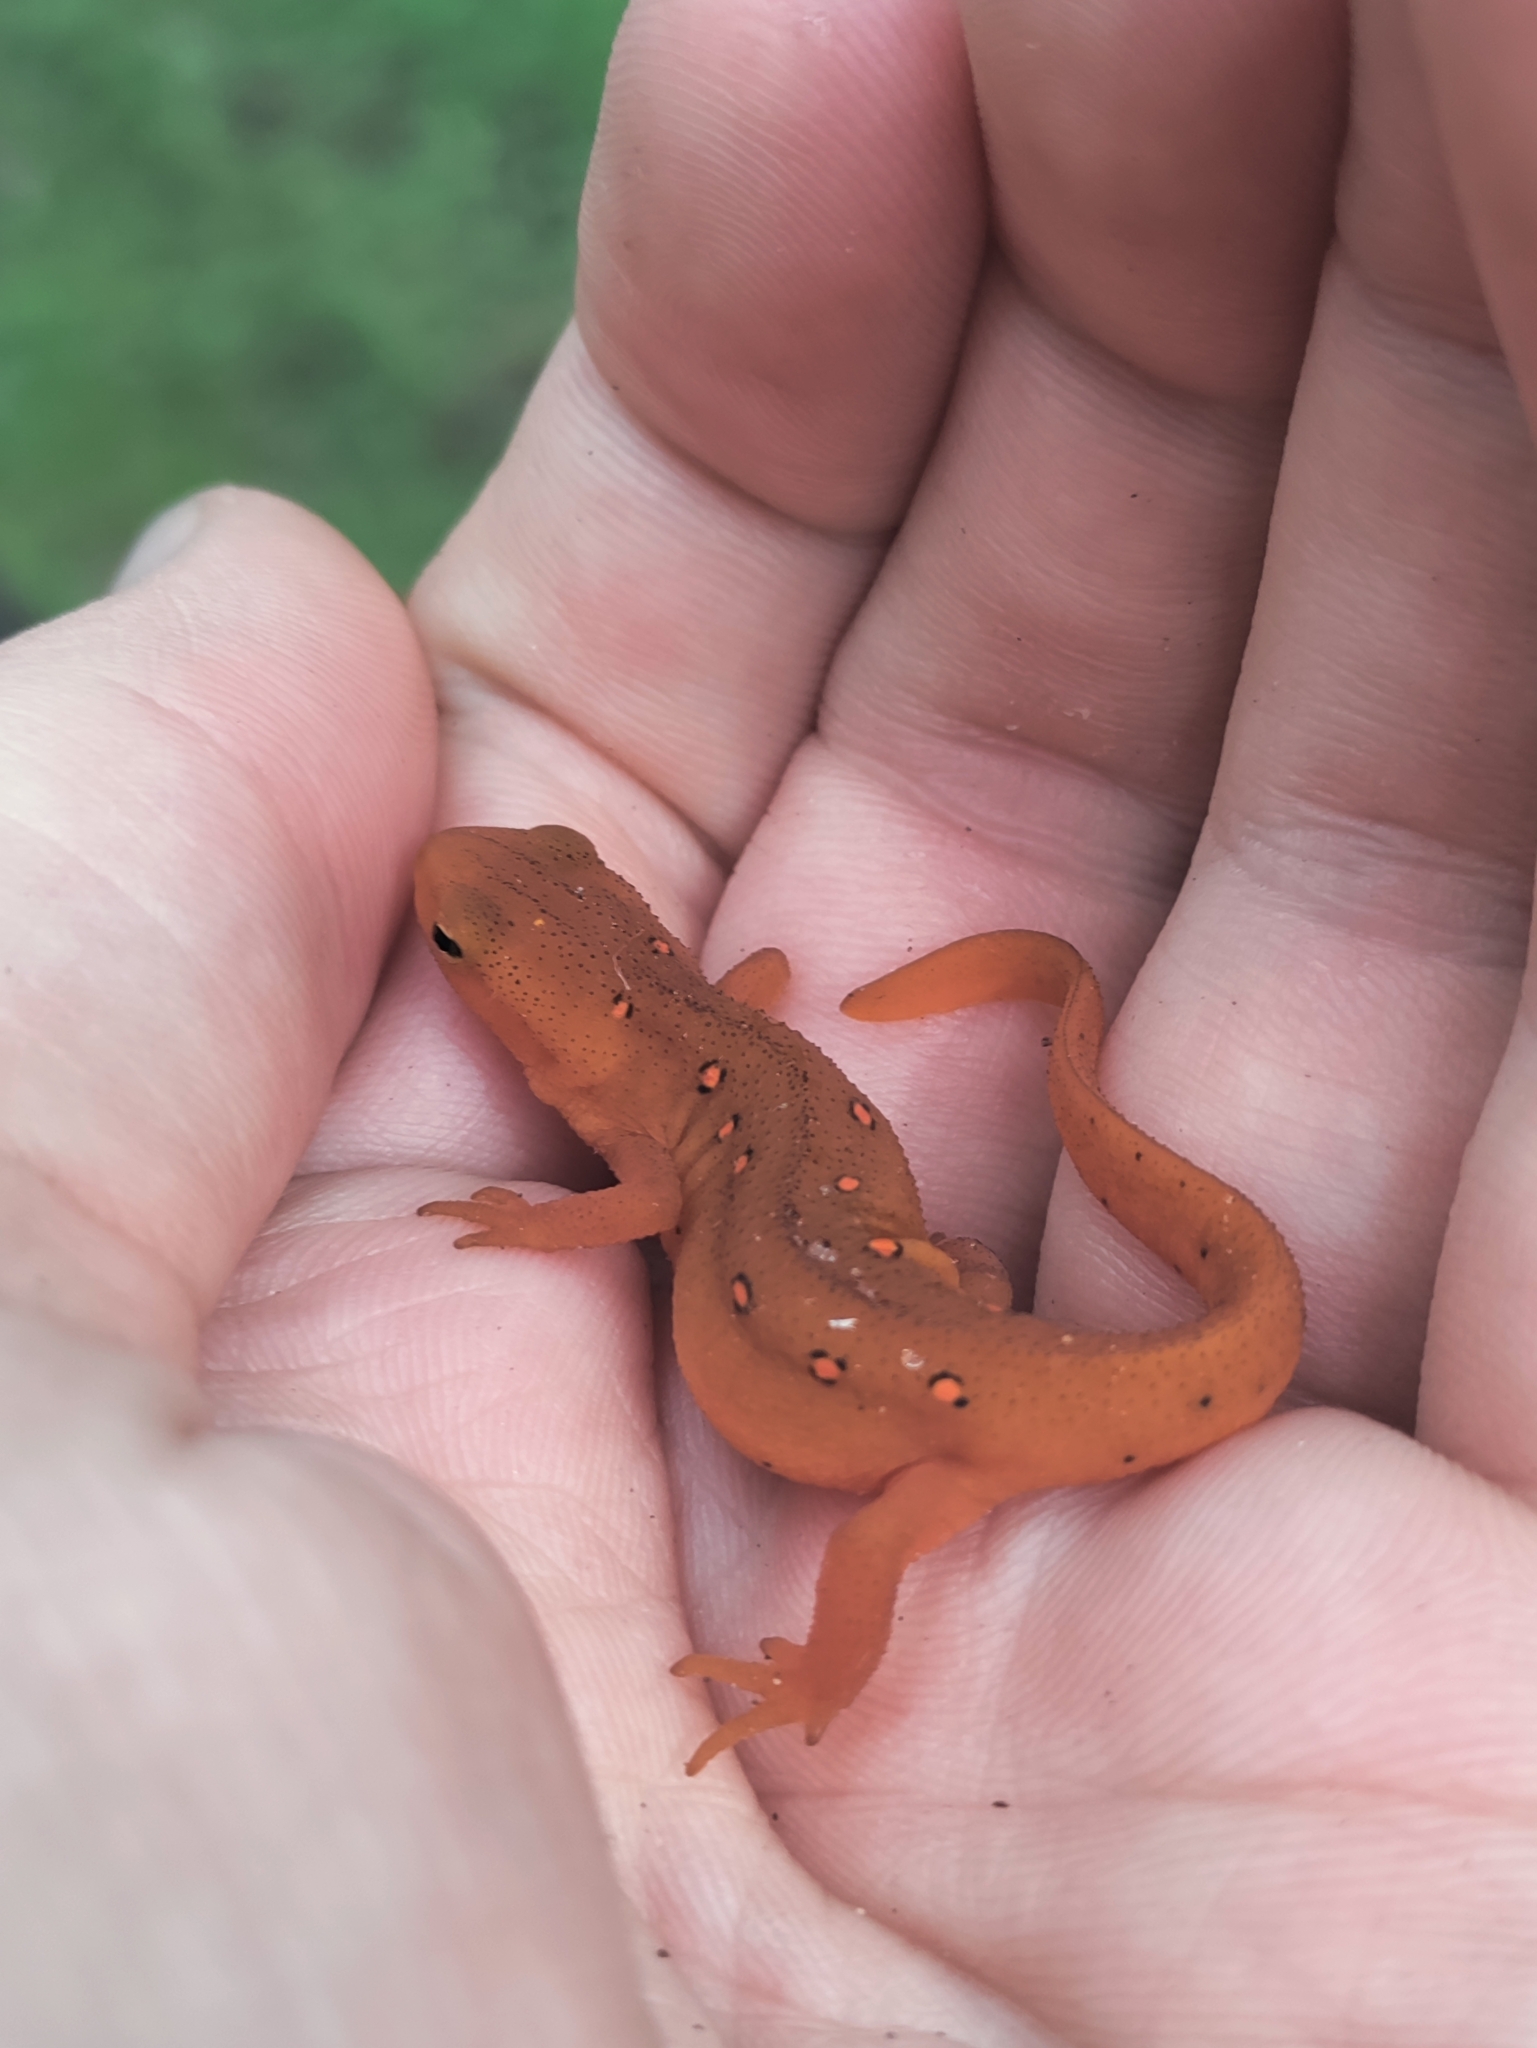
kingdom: Animalia
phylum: Chordata
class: Amphibia
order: Caudata
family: Salamandridae
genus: Notophthalmus
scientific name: Notophthalmus viridescens
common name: Eastern newt
